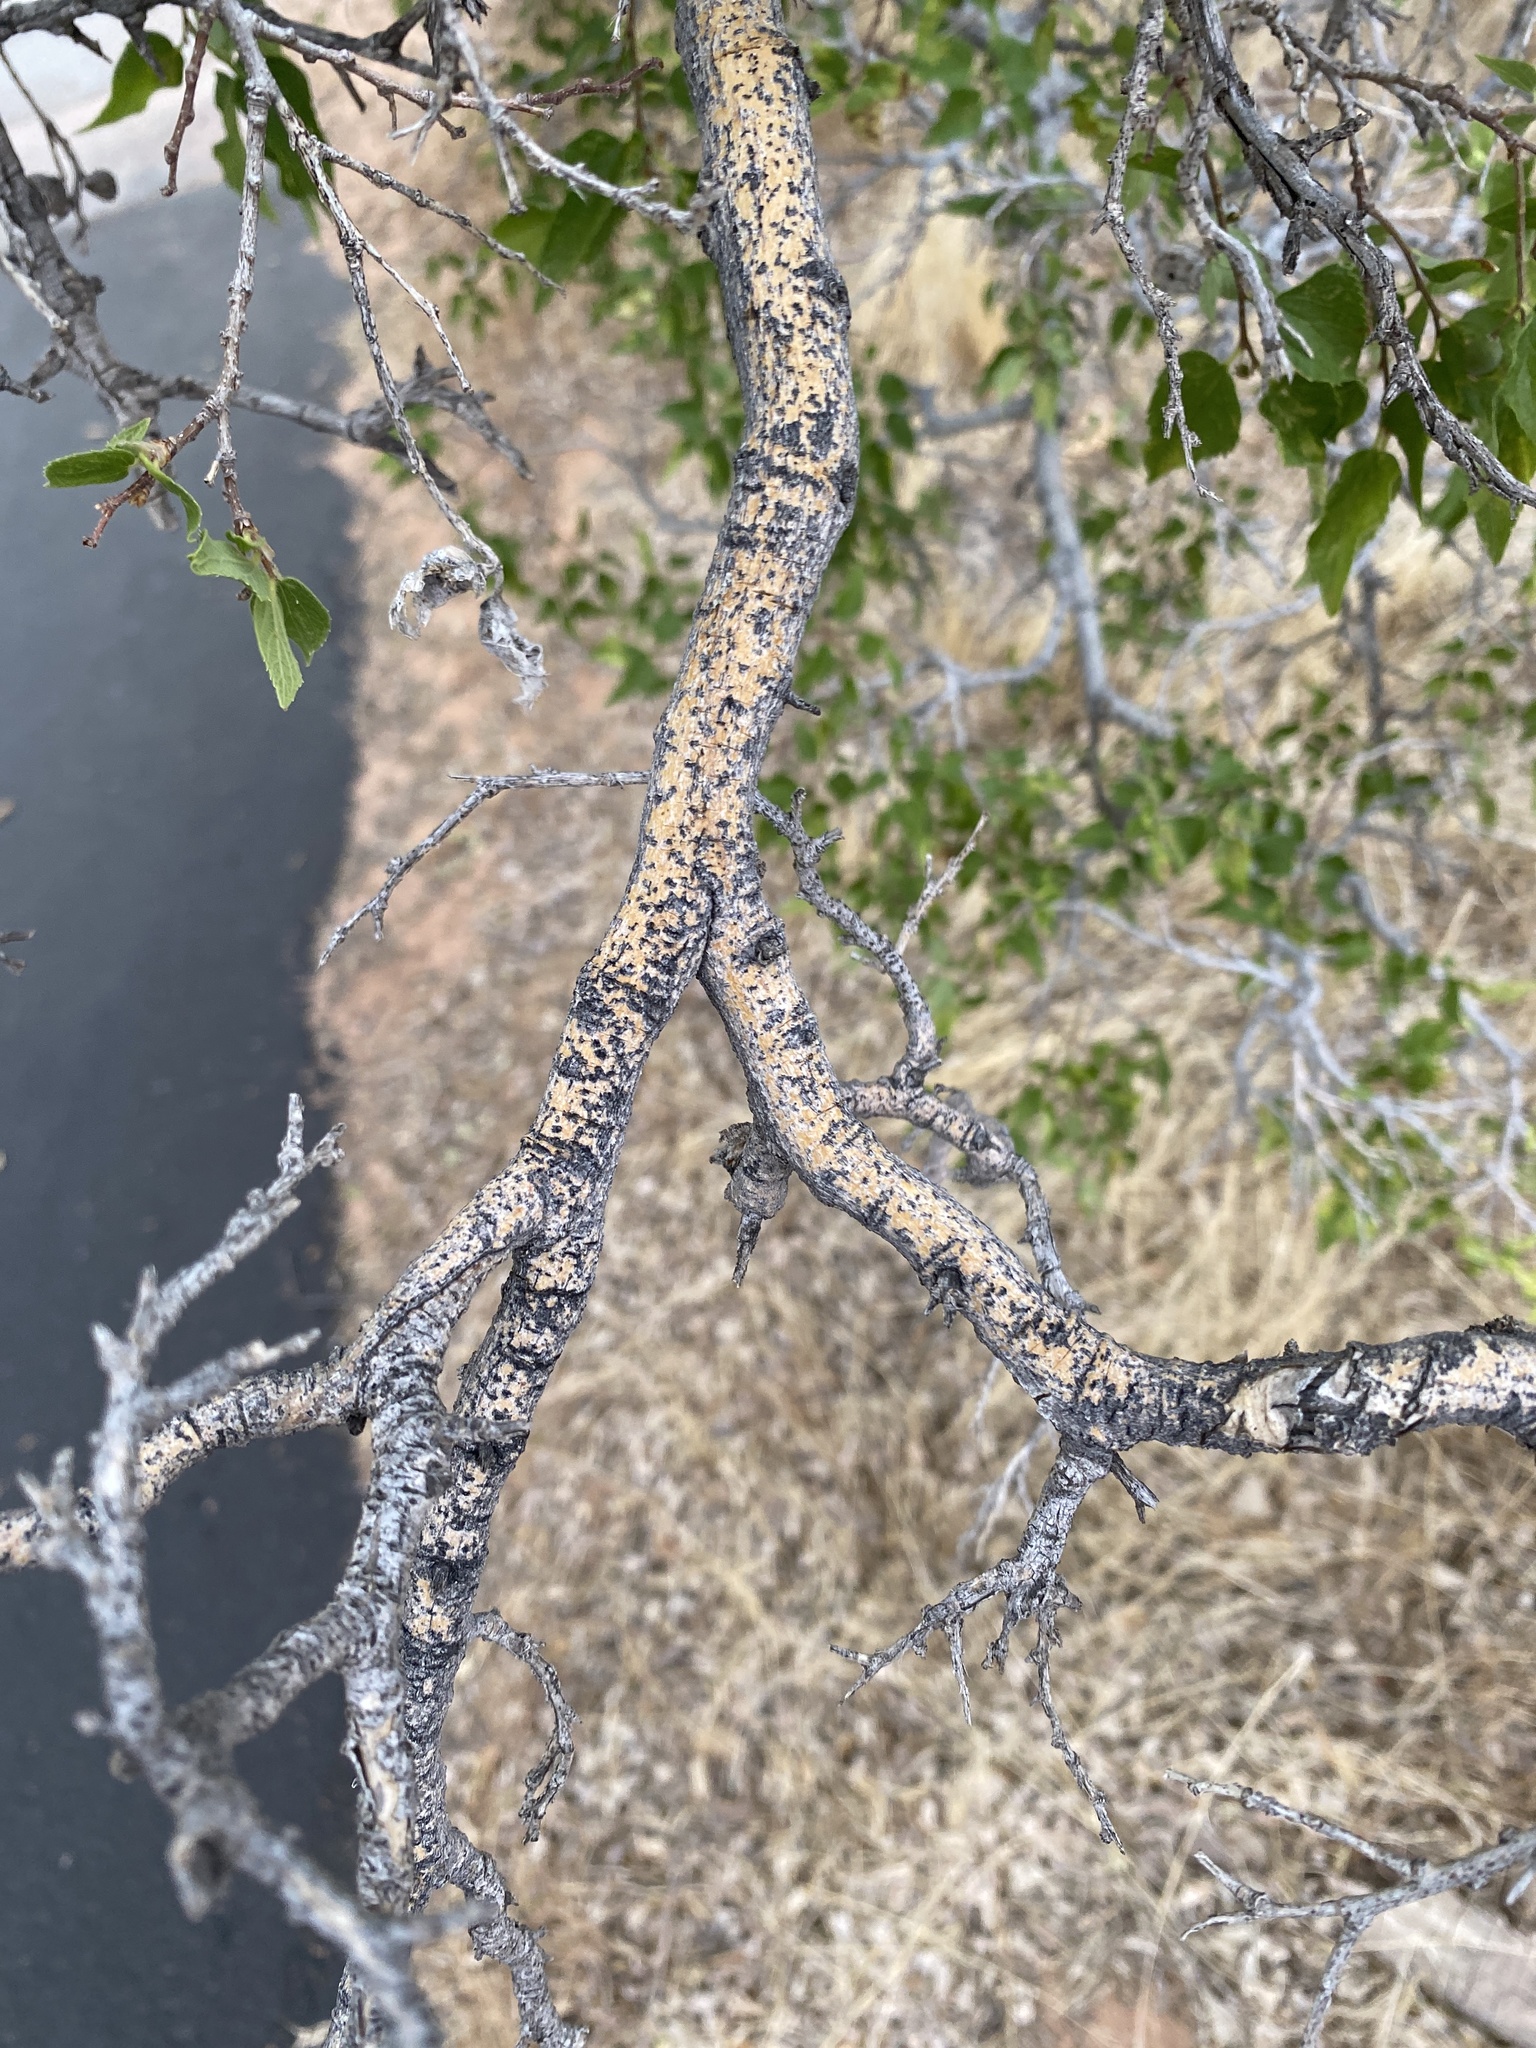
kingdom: Plantae
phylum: Tracheophyta
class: Magnoliopsida
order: Rosales
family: Cannabaceae
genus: Celtis
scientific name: Celtis reticulata
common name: Netleaf hackberry
